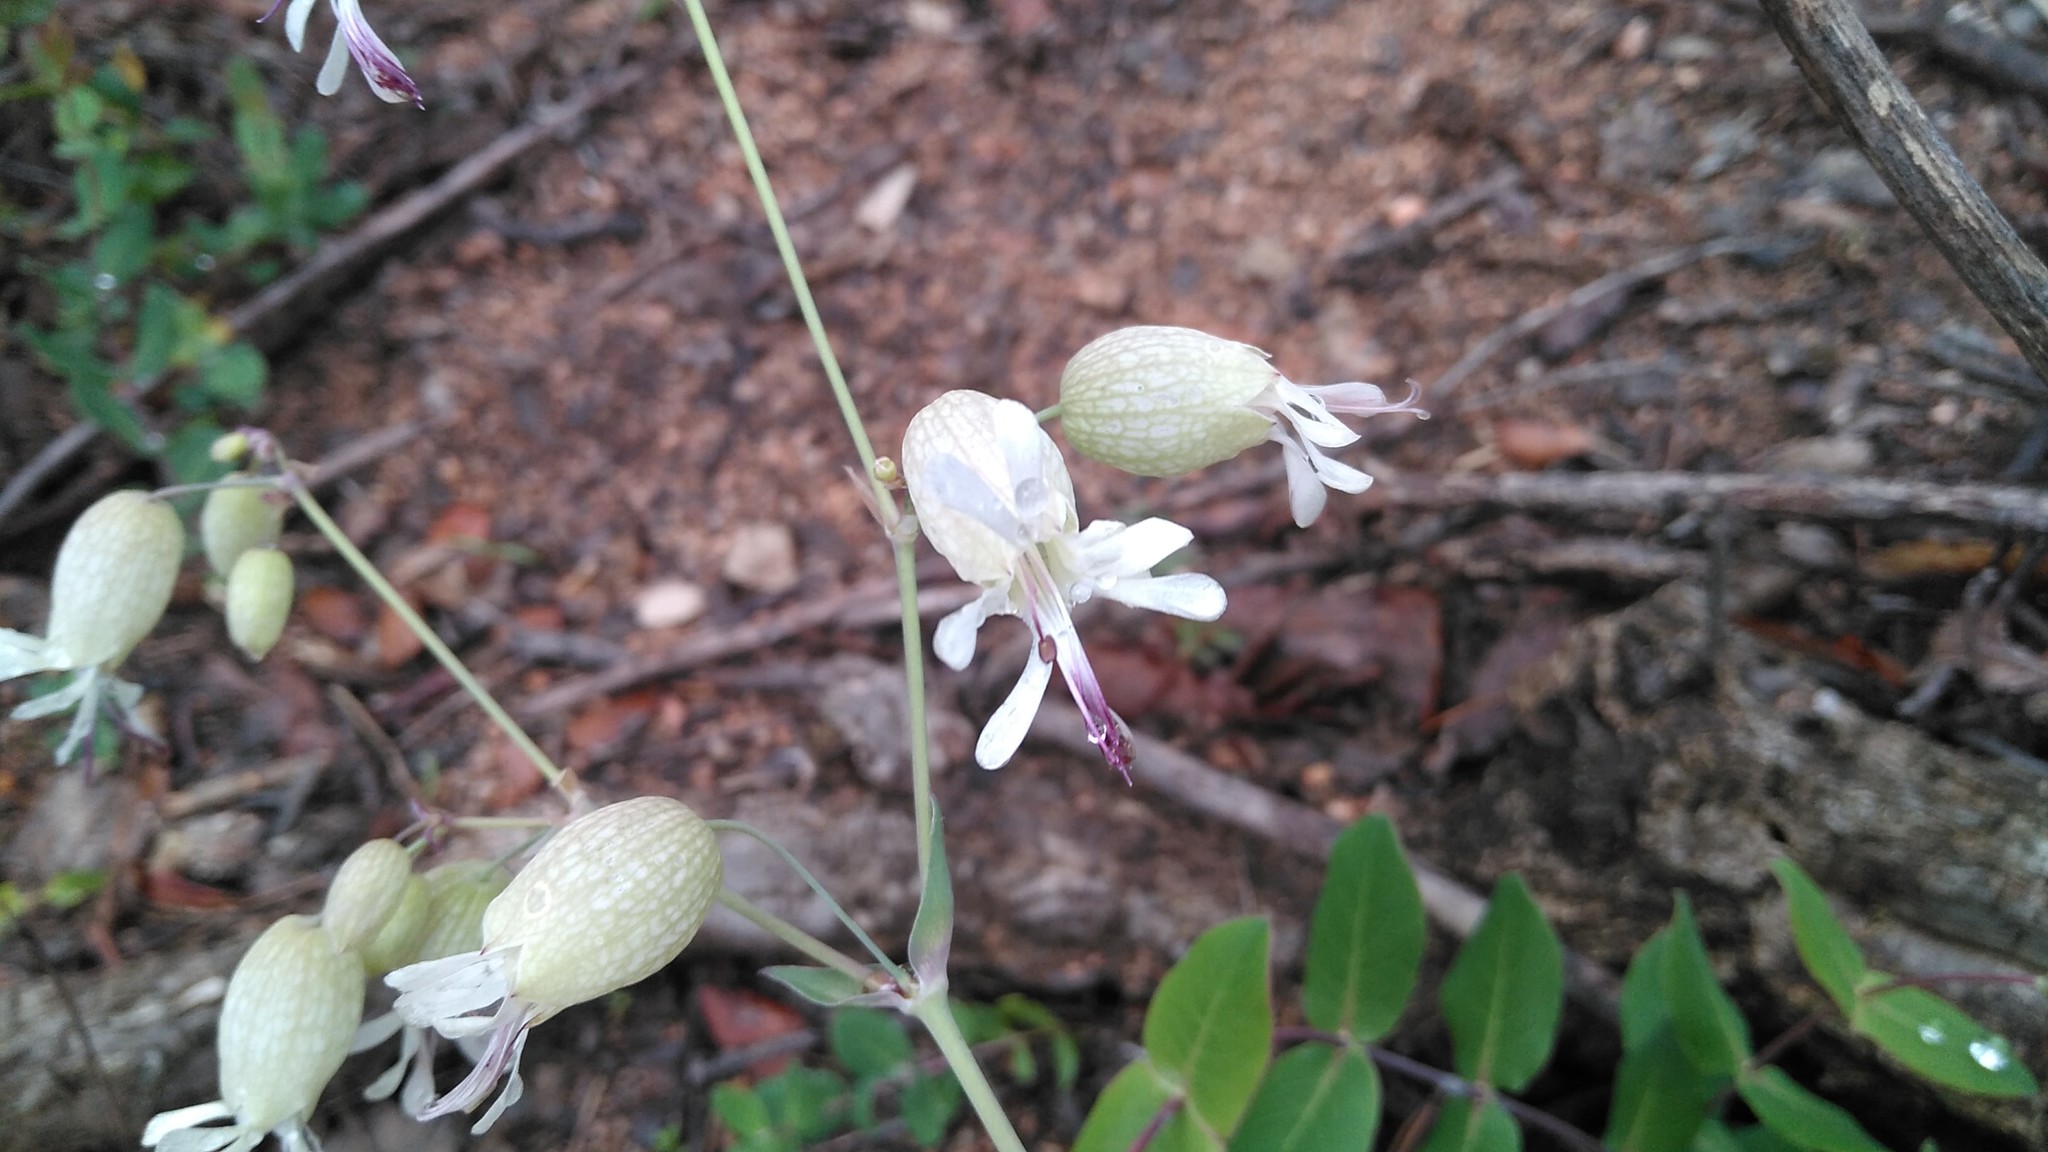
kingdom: Plantae
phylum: Tracheophyta
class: Magnoliopsida
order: Caryophyllales
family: Caryophyllaceae
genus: Silene
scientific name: Silene vulgaris
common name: Bladder campion
